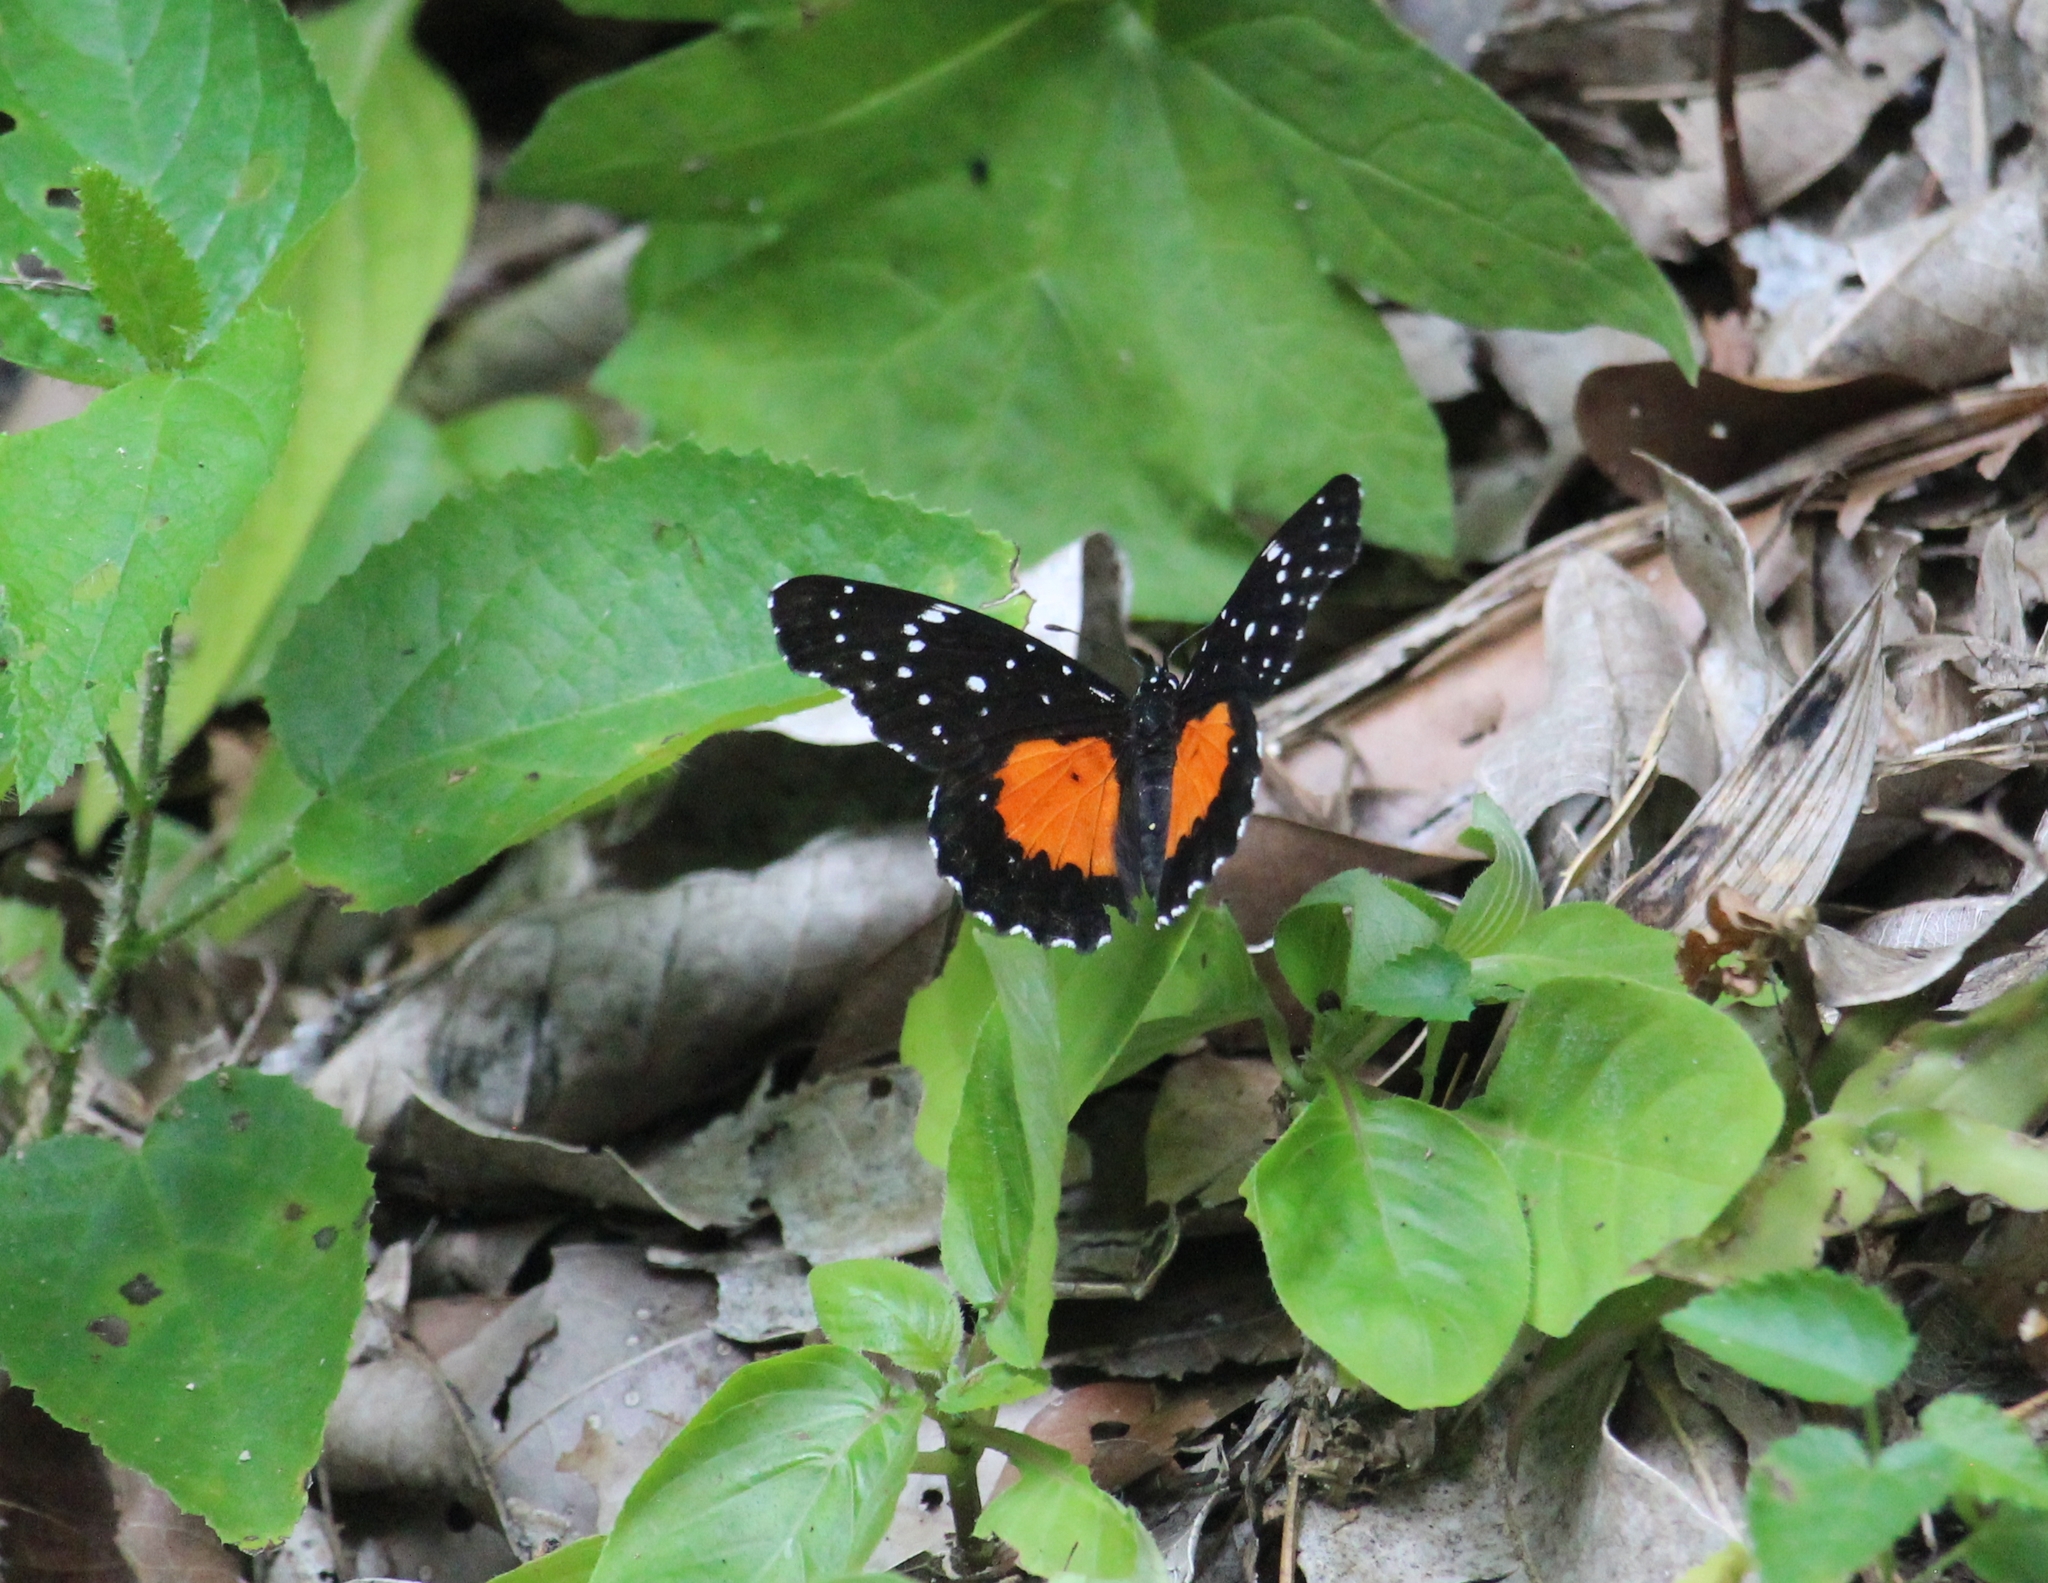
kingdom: Animalia
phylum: Arthropoda
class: Insecta
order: Lepidoptera
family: Nymphalidae
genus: Chlosyne
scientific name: Chlosyne janais
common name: Crimson patch
